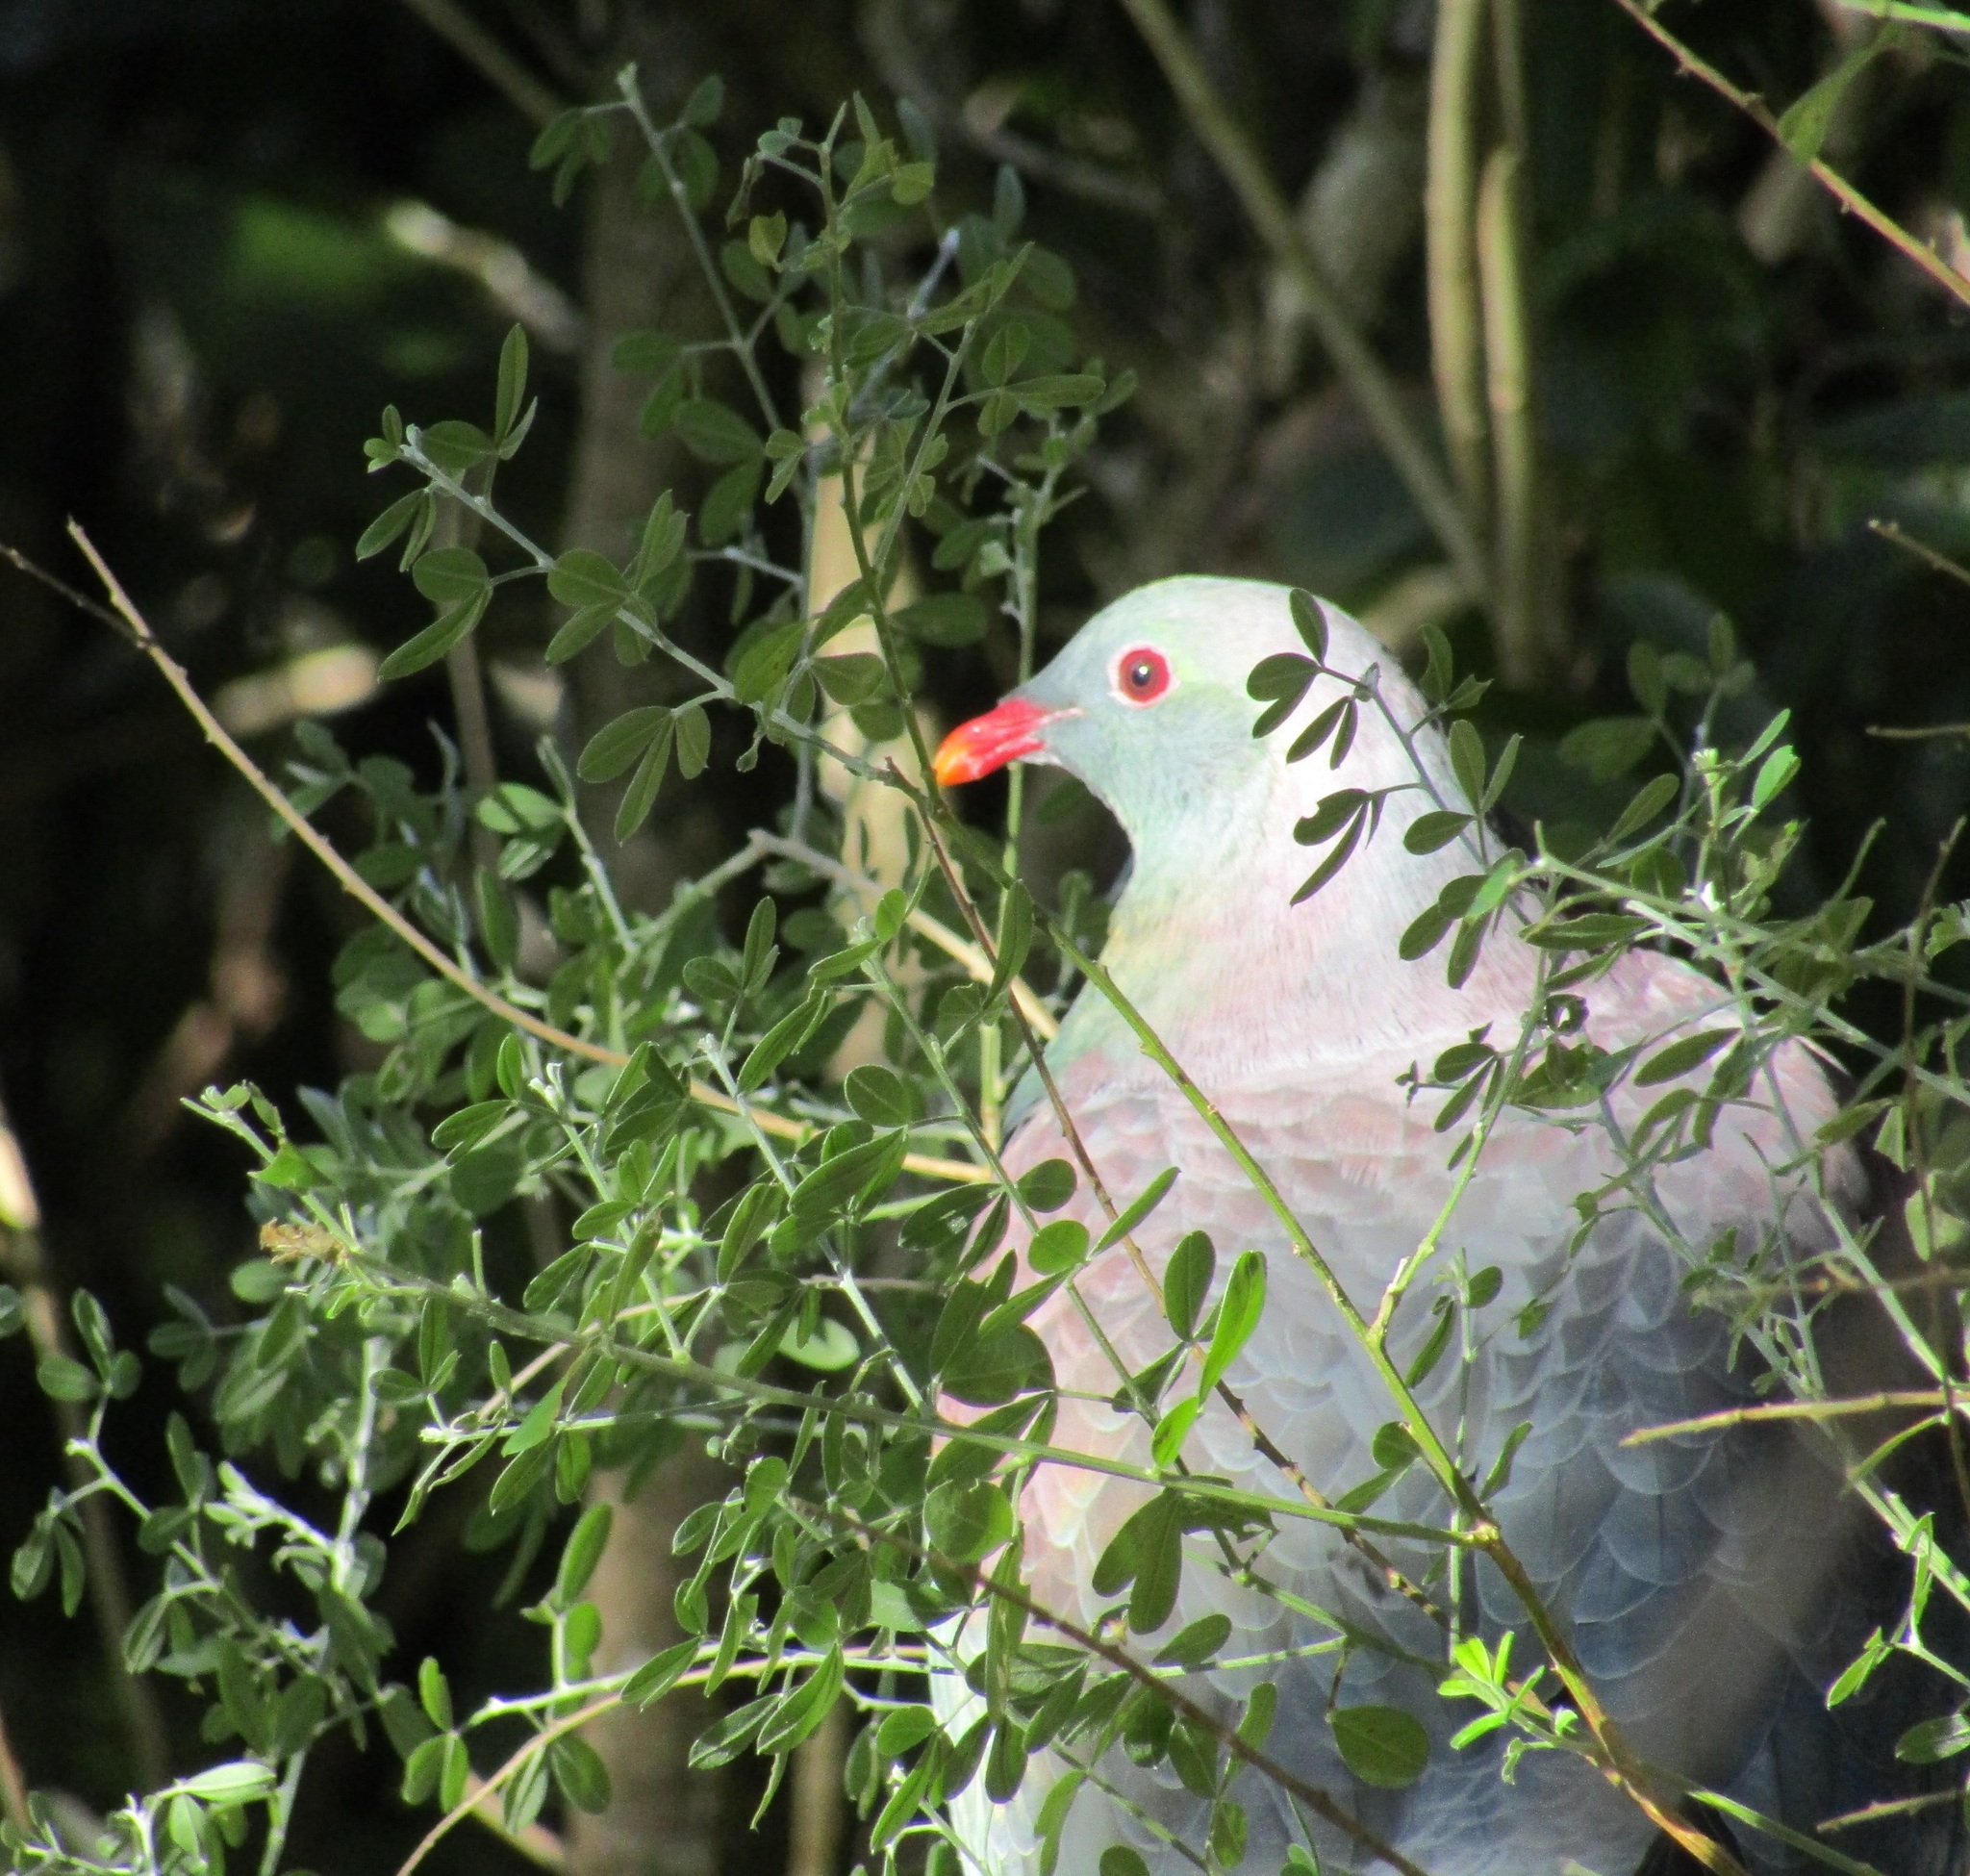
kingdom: Animalia
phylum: Chordata
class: Aves
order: Columbiformes
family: Columbidae
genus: Hemiphaga
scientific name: Hemiphaga novaeseelandiae
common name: New zealand pigeon
